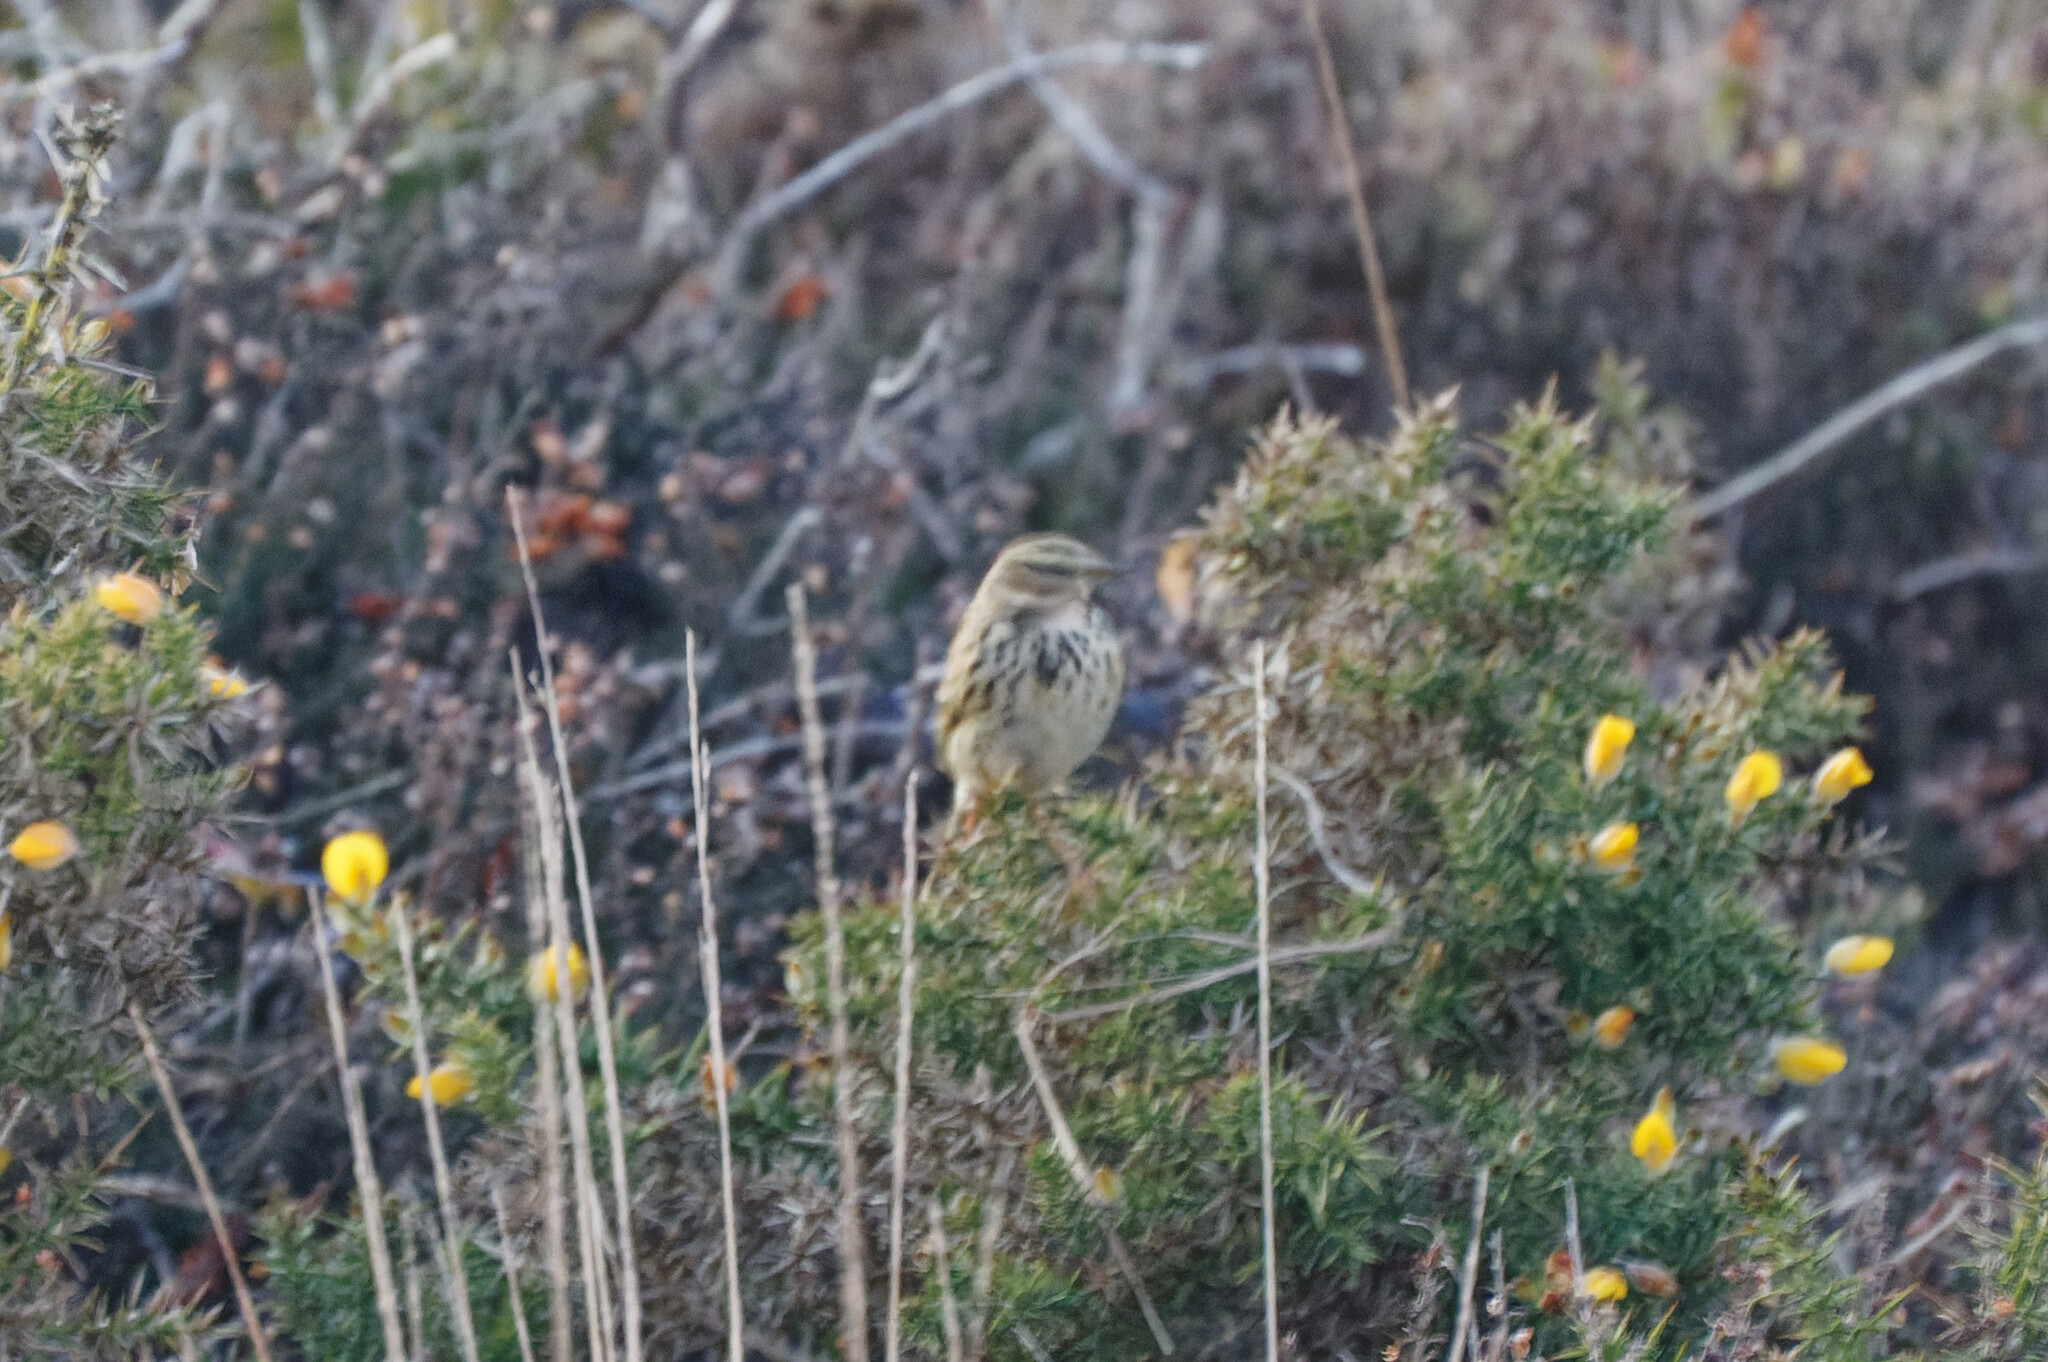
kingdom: Animalia
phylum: Chordata
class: Aves
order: Passeriformes
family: Motacillidae
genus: Anthus
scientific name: Anthus pratensis
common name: Meadow pipit
